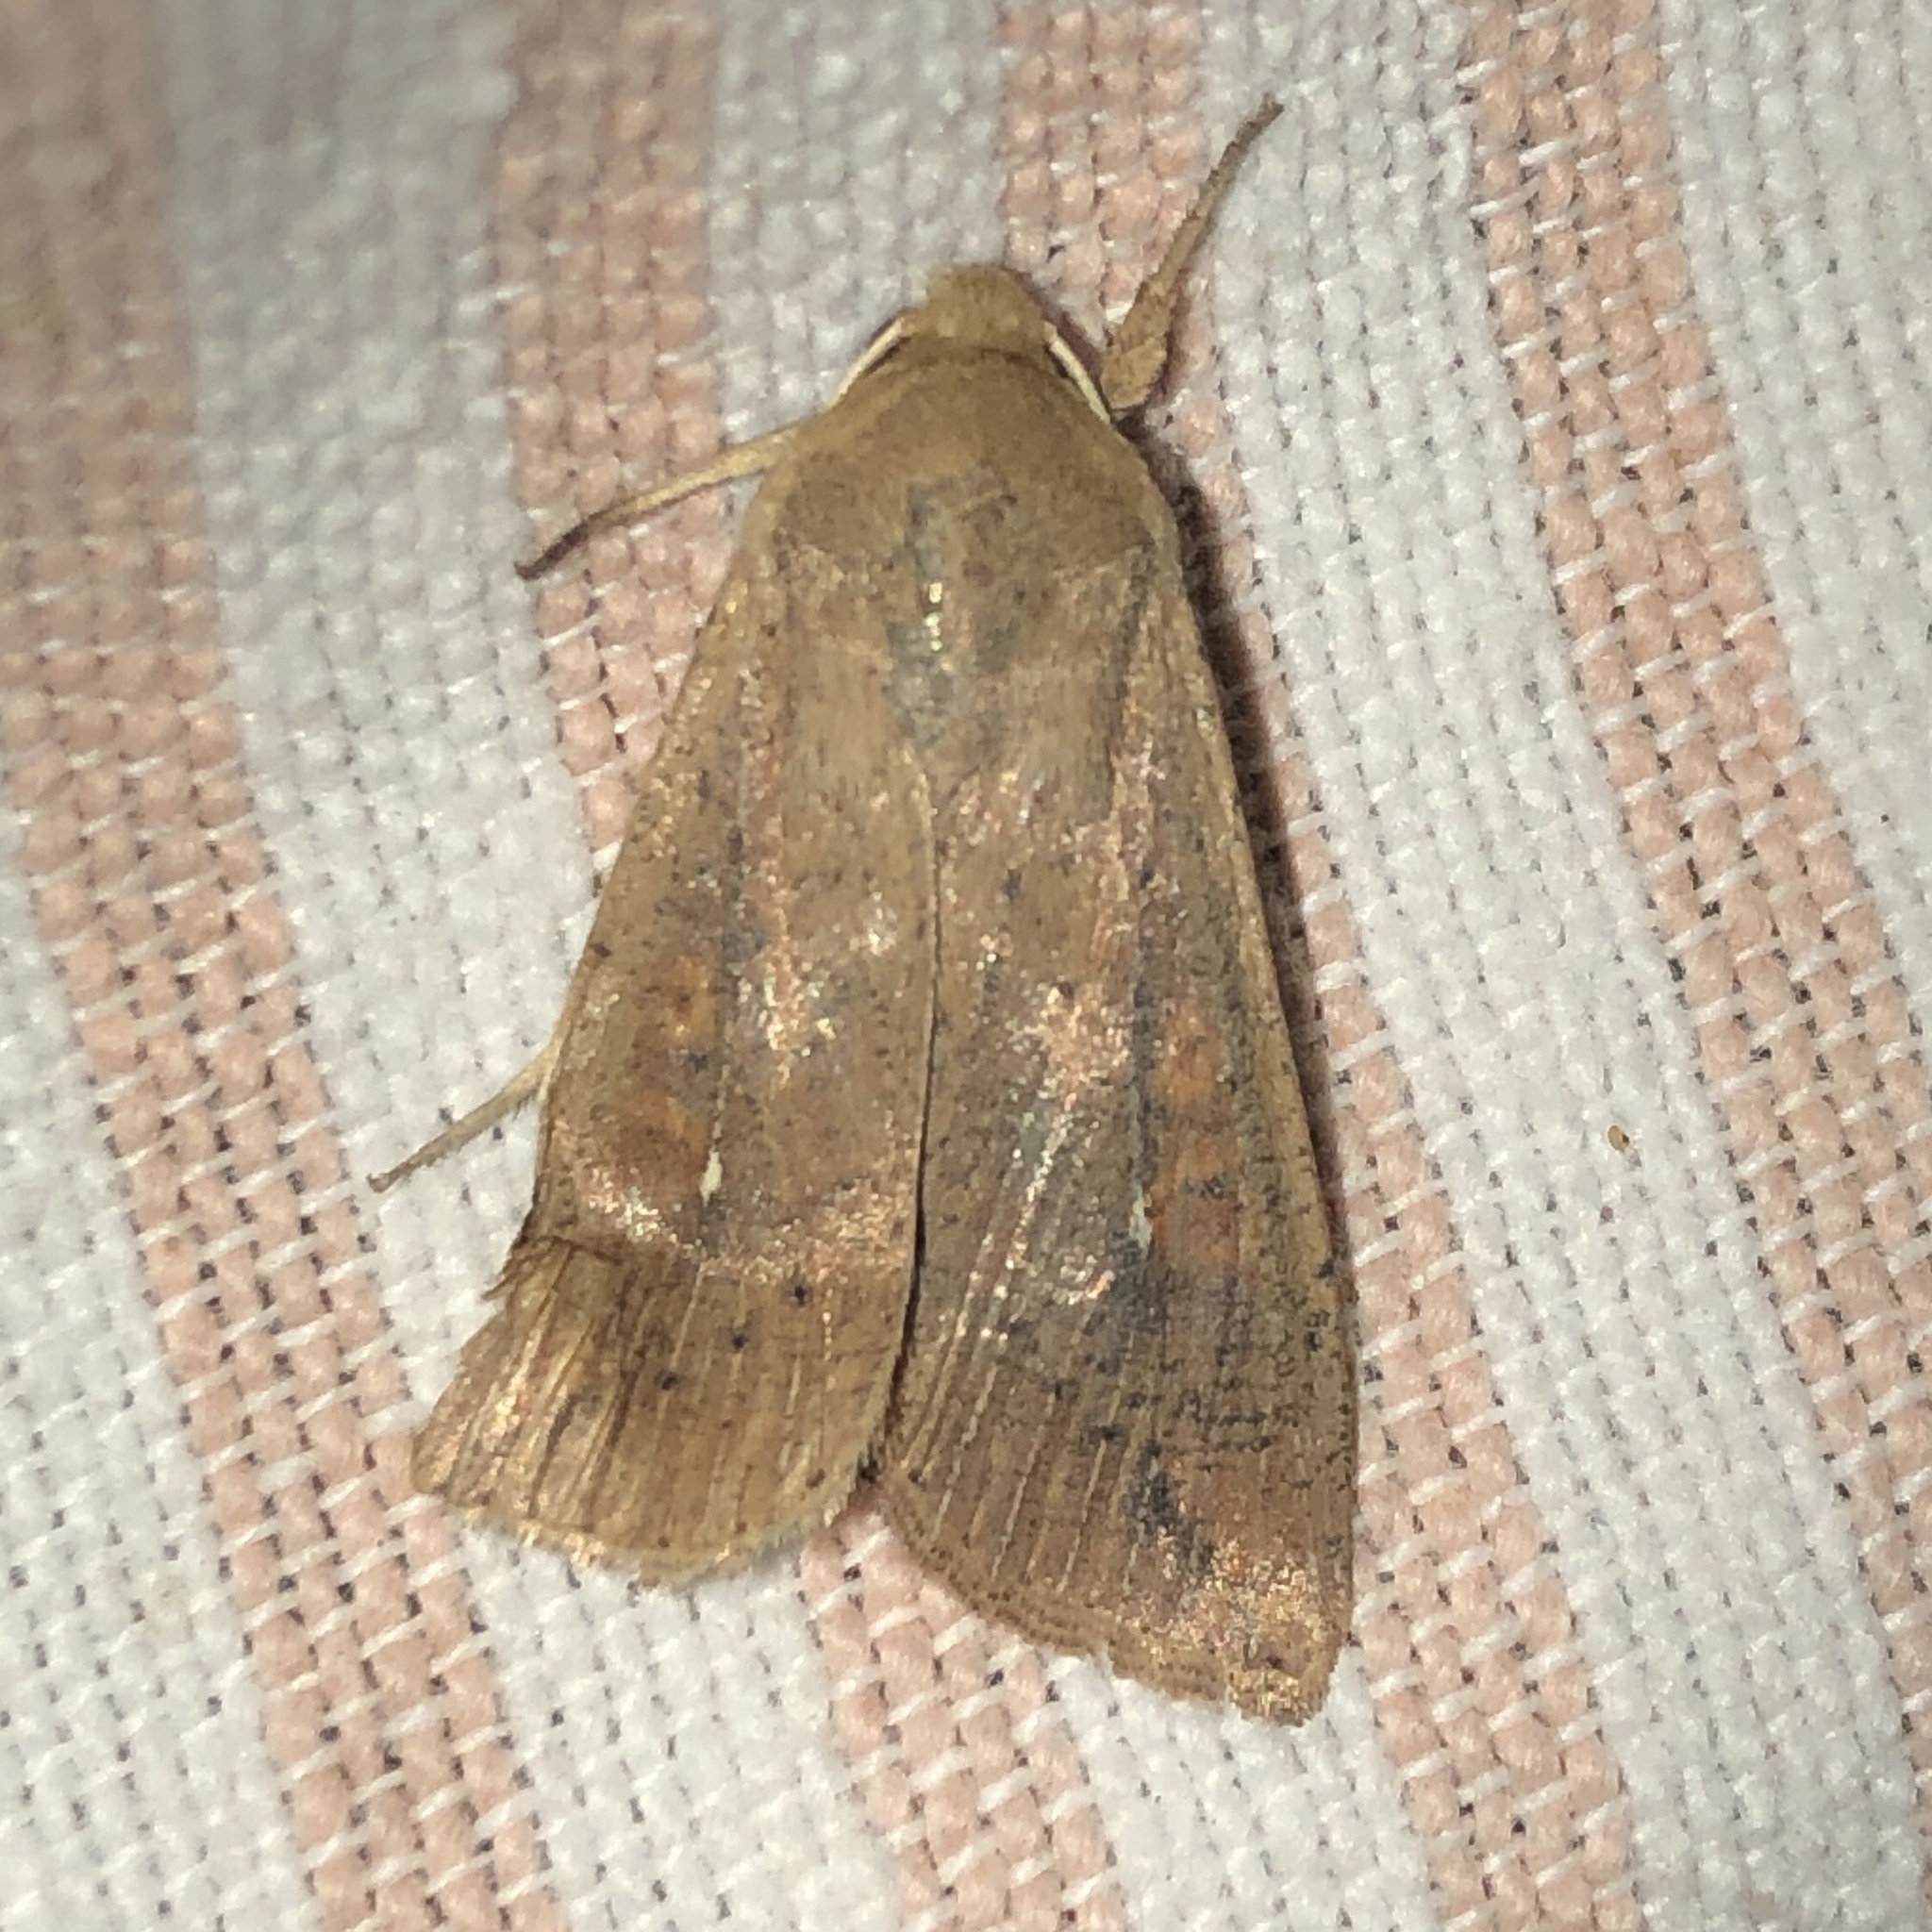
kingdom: Animalia
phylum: Arthropoda
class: Insecta
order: Lepidoptera
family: Noctuidae
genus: Mythimna
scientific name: Mythimna unipuncta
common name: White-speck
